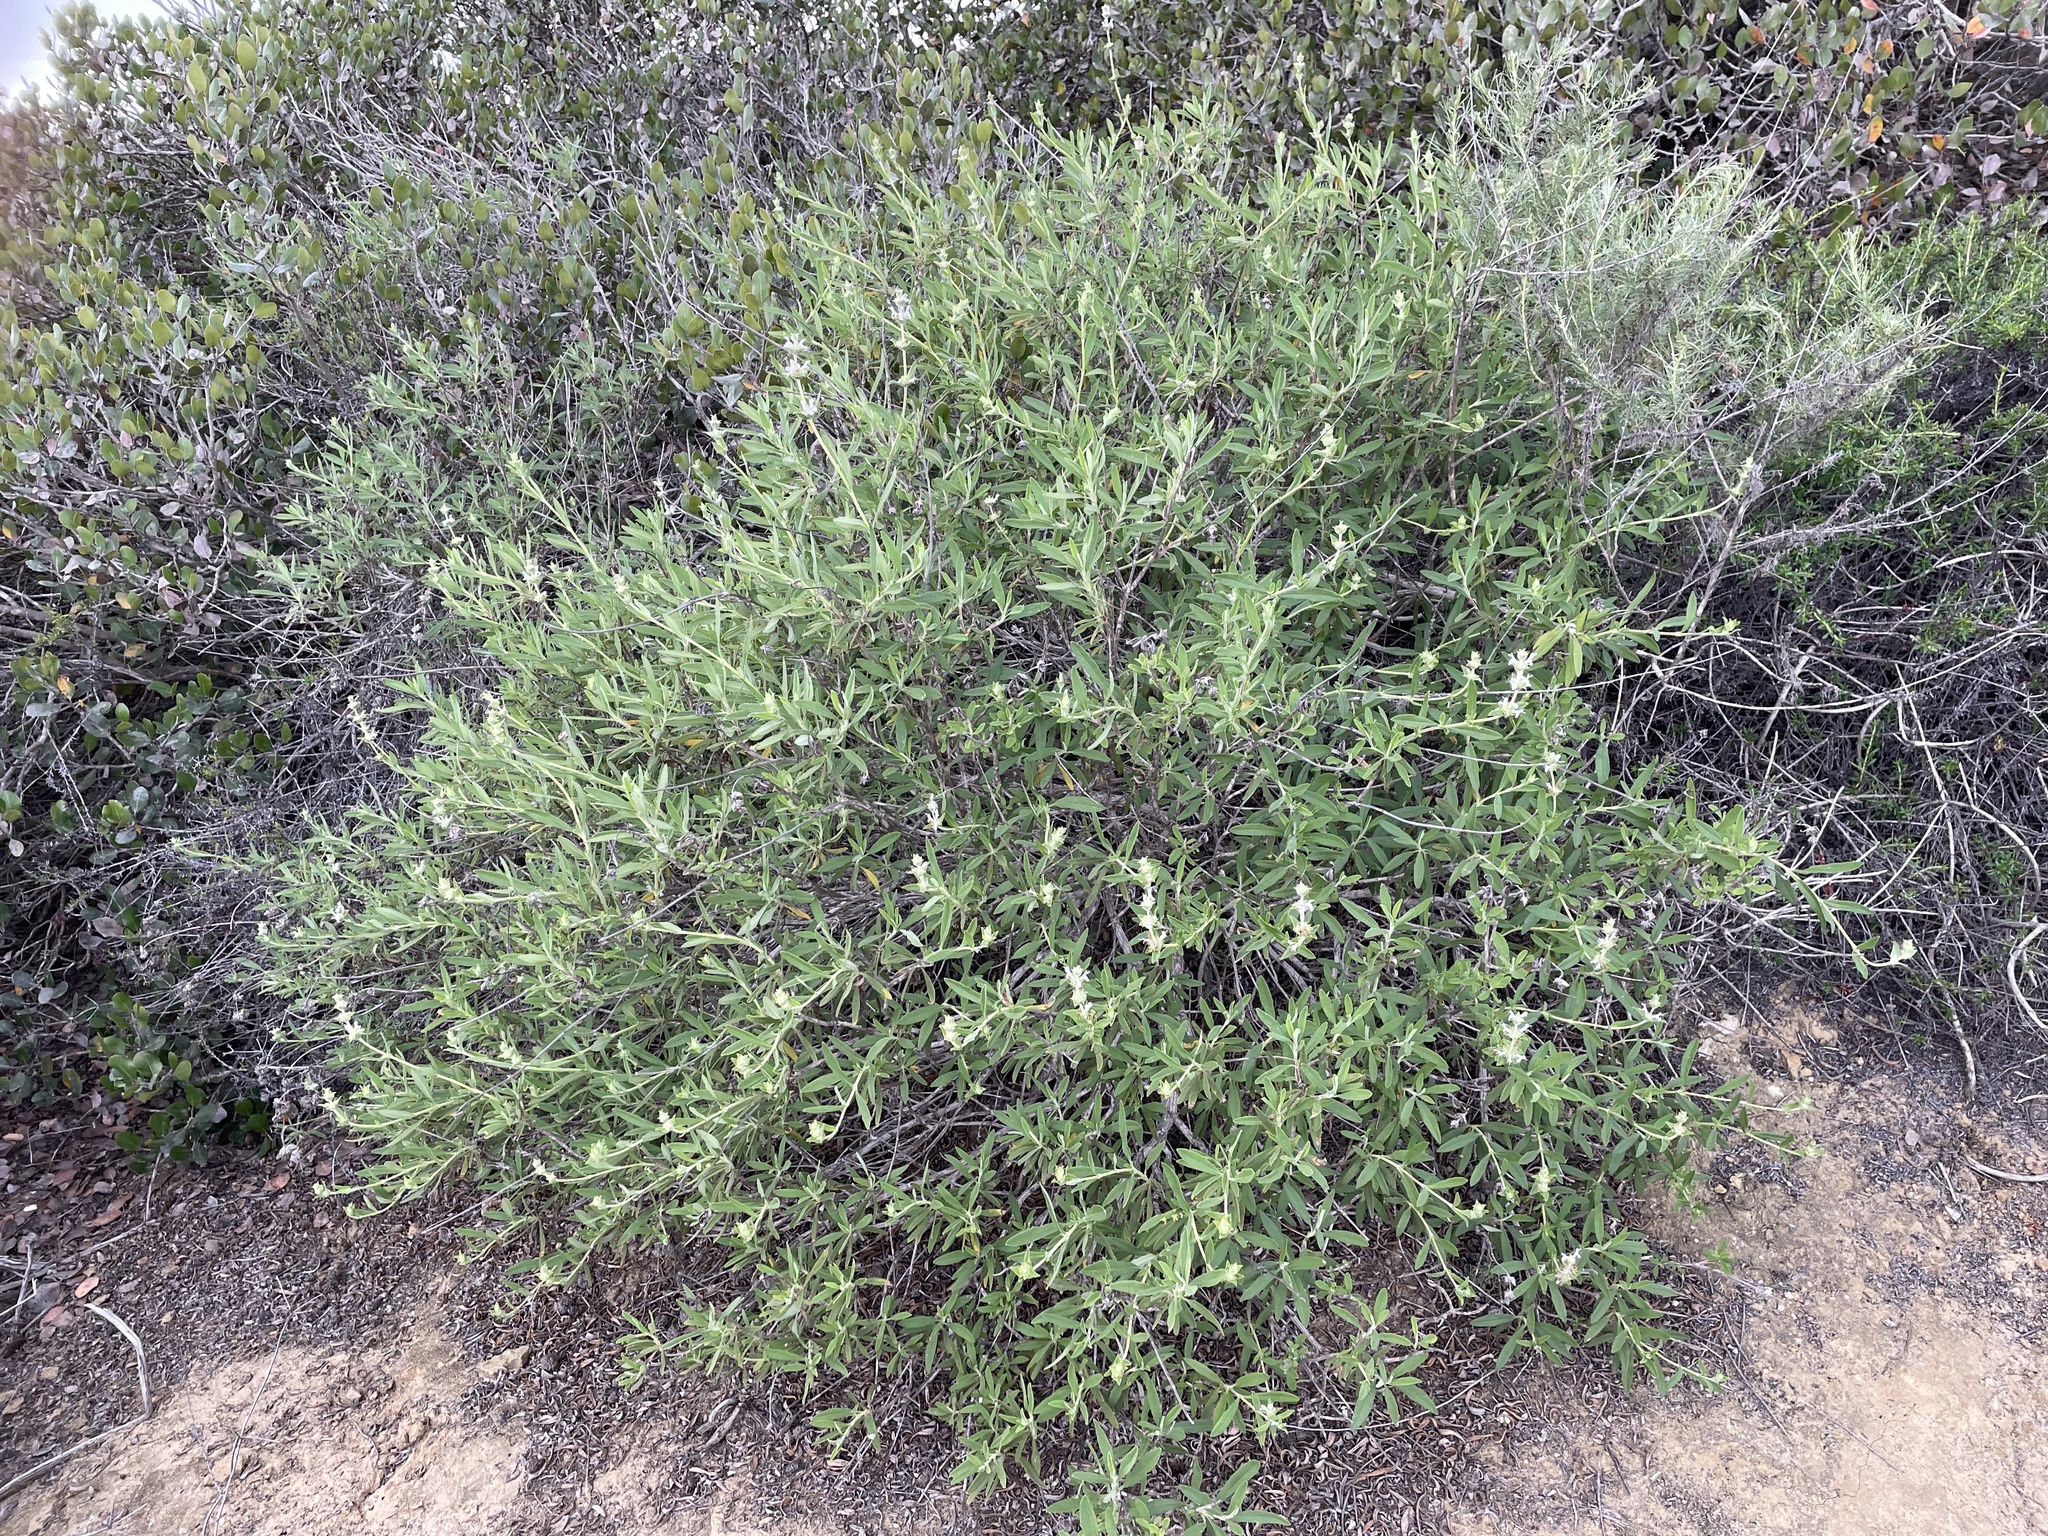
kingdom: Plantae
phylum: Tracheophyta
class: Magnoliopsida
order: Lamiales
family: Lamiaceae
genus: Salvia
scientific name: Salvia mellifera
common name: Black sage
